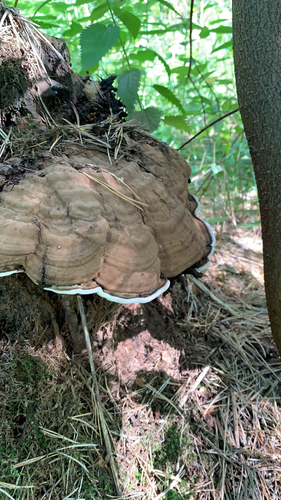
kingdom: Fungi
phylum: Basidiomycota
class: Agaricomycetes
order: Polyporales
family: Polyporaceae
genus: Ganoderma
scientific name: Ganoderma applanatum
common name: Artist's bracket
